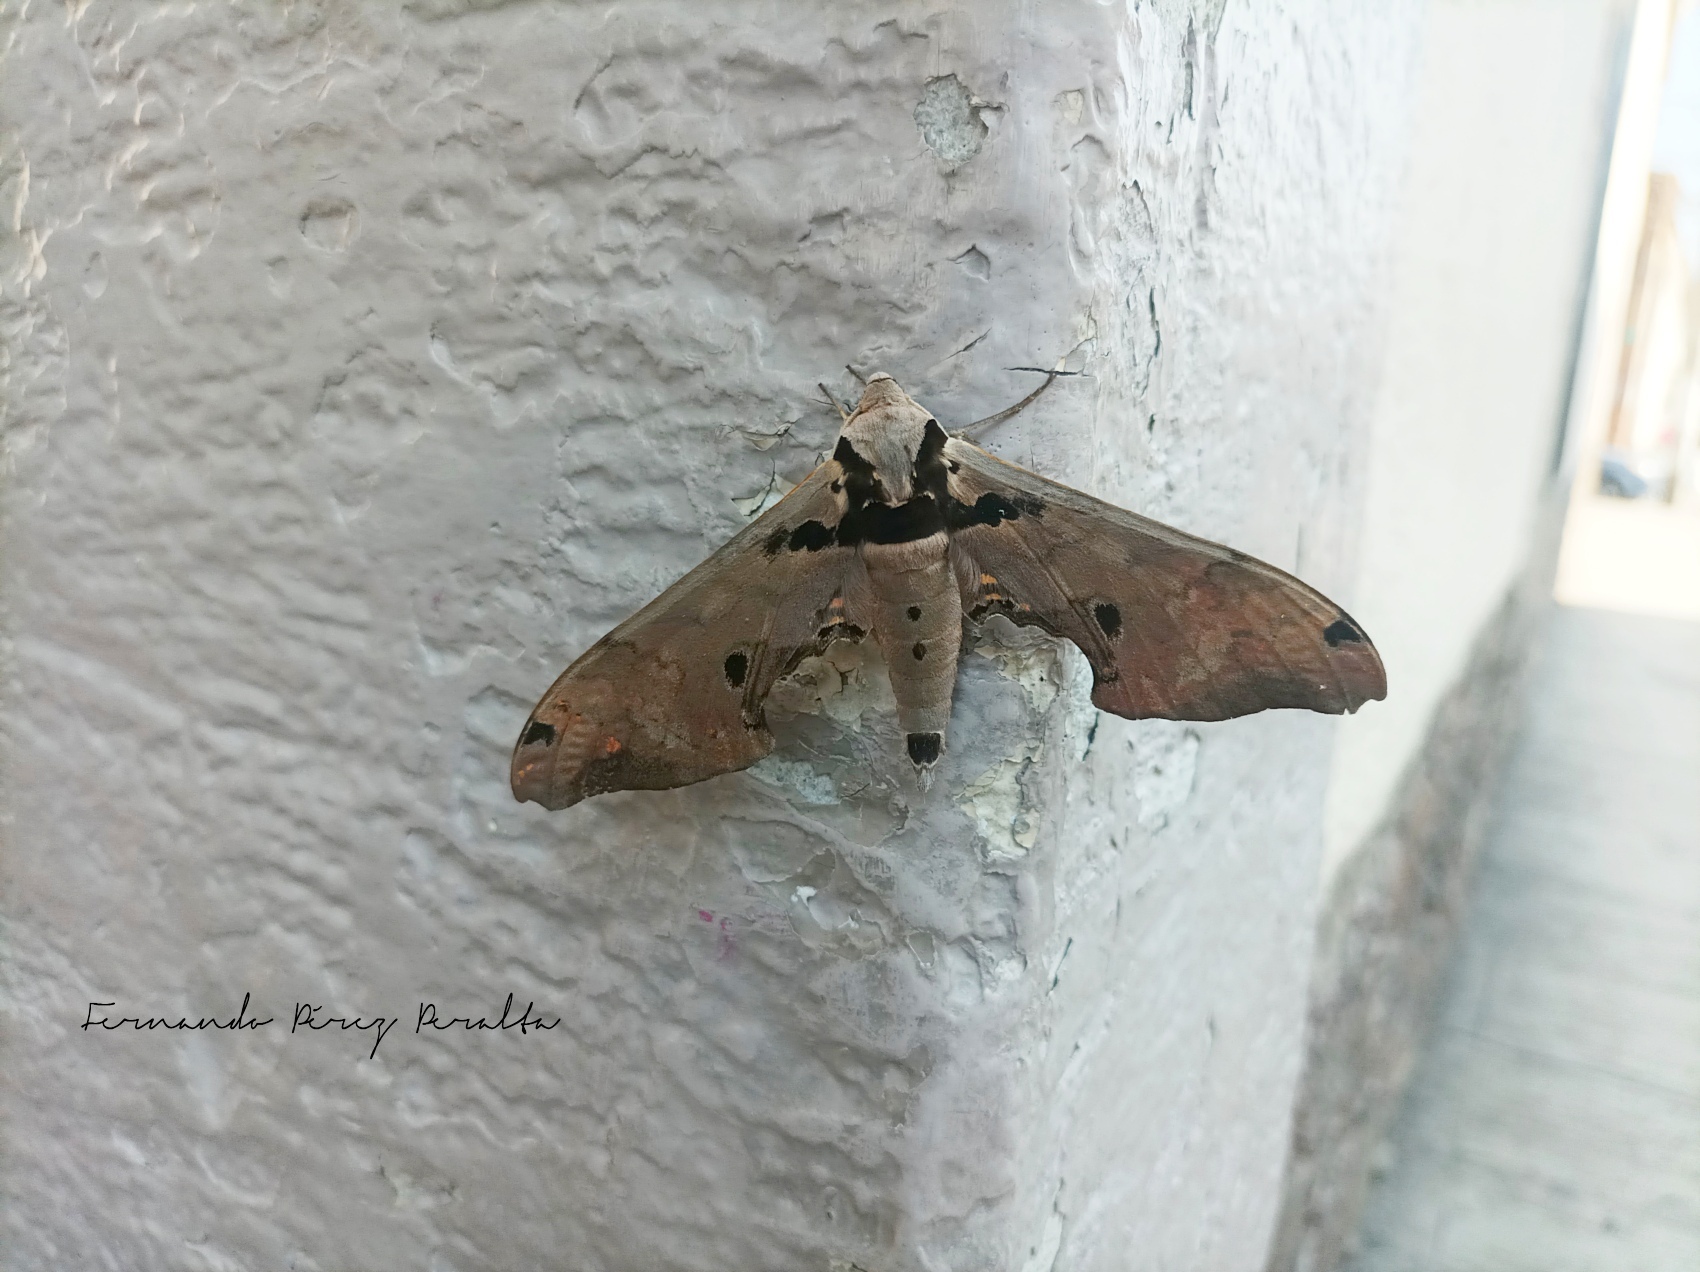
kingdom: Animalia
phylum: Arthropoda
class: Insecta
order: Lepidoptera
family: Sphingidae
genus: Adhemarius
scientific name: Adhemarius gannascus
